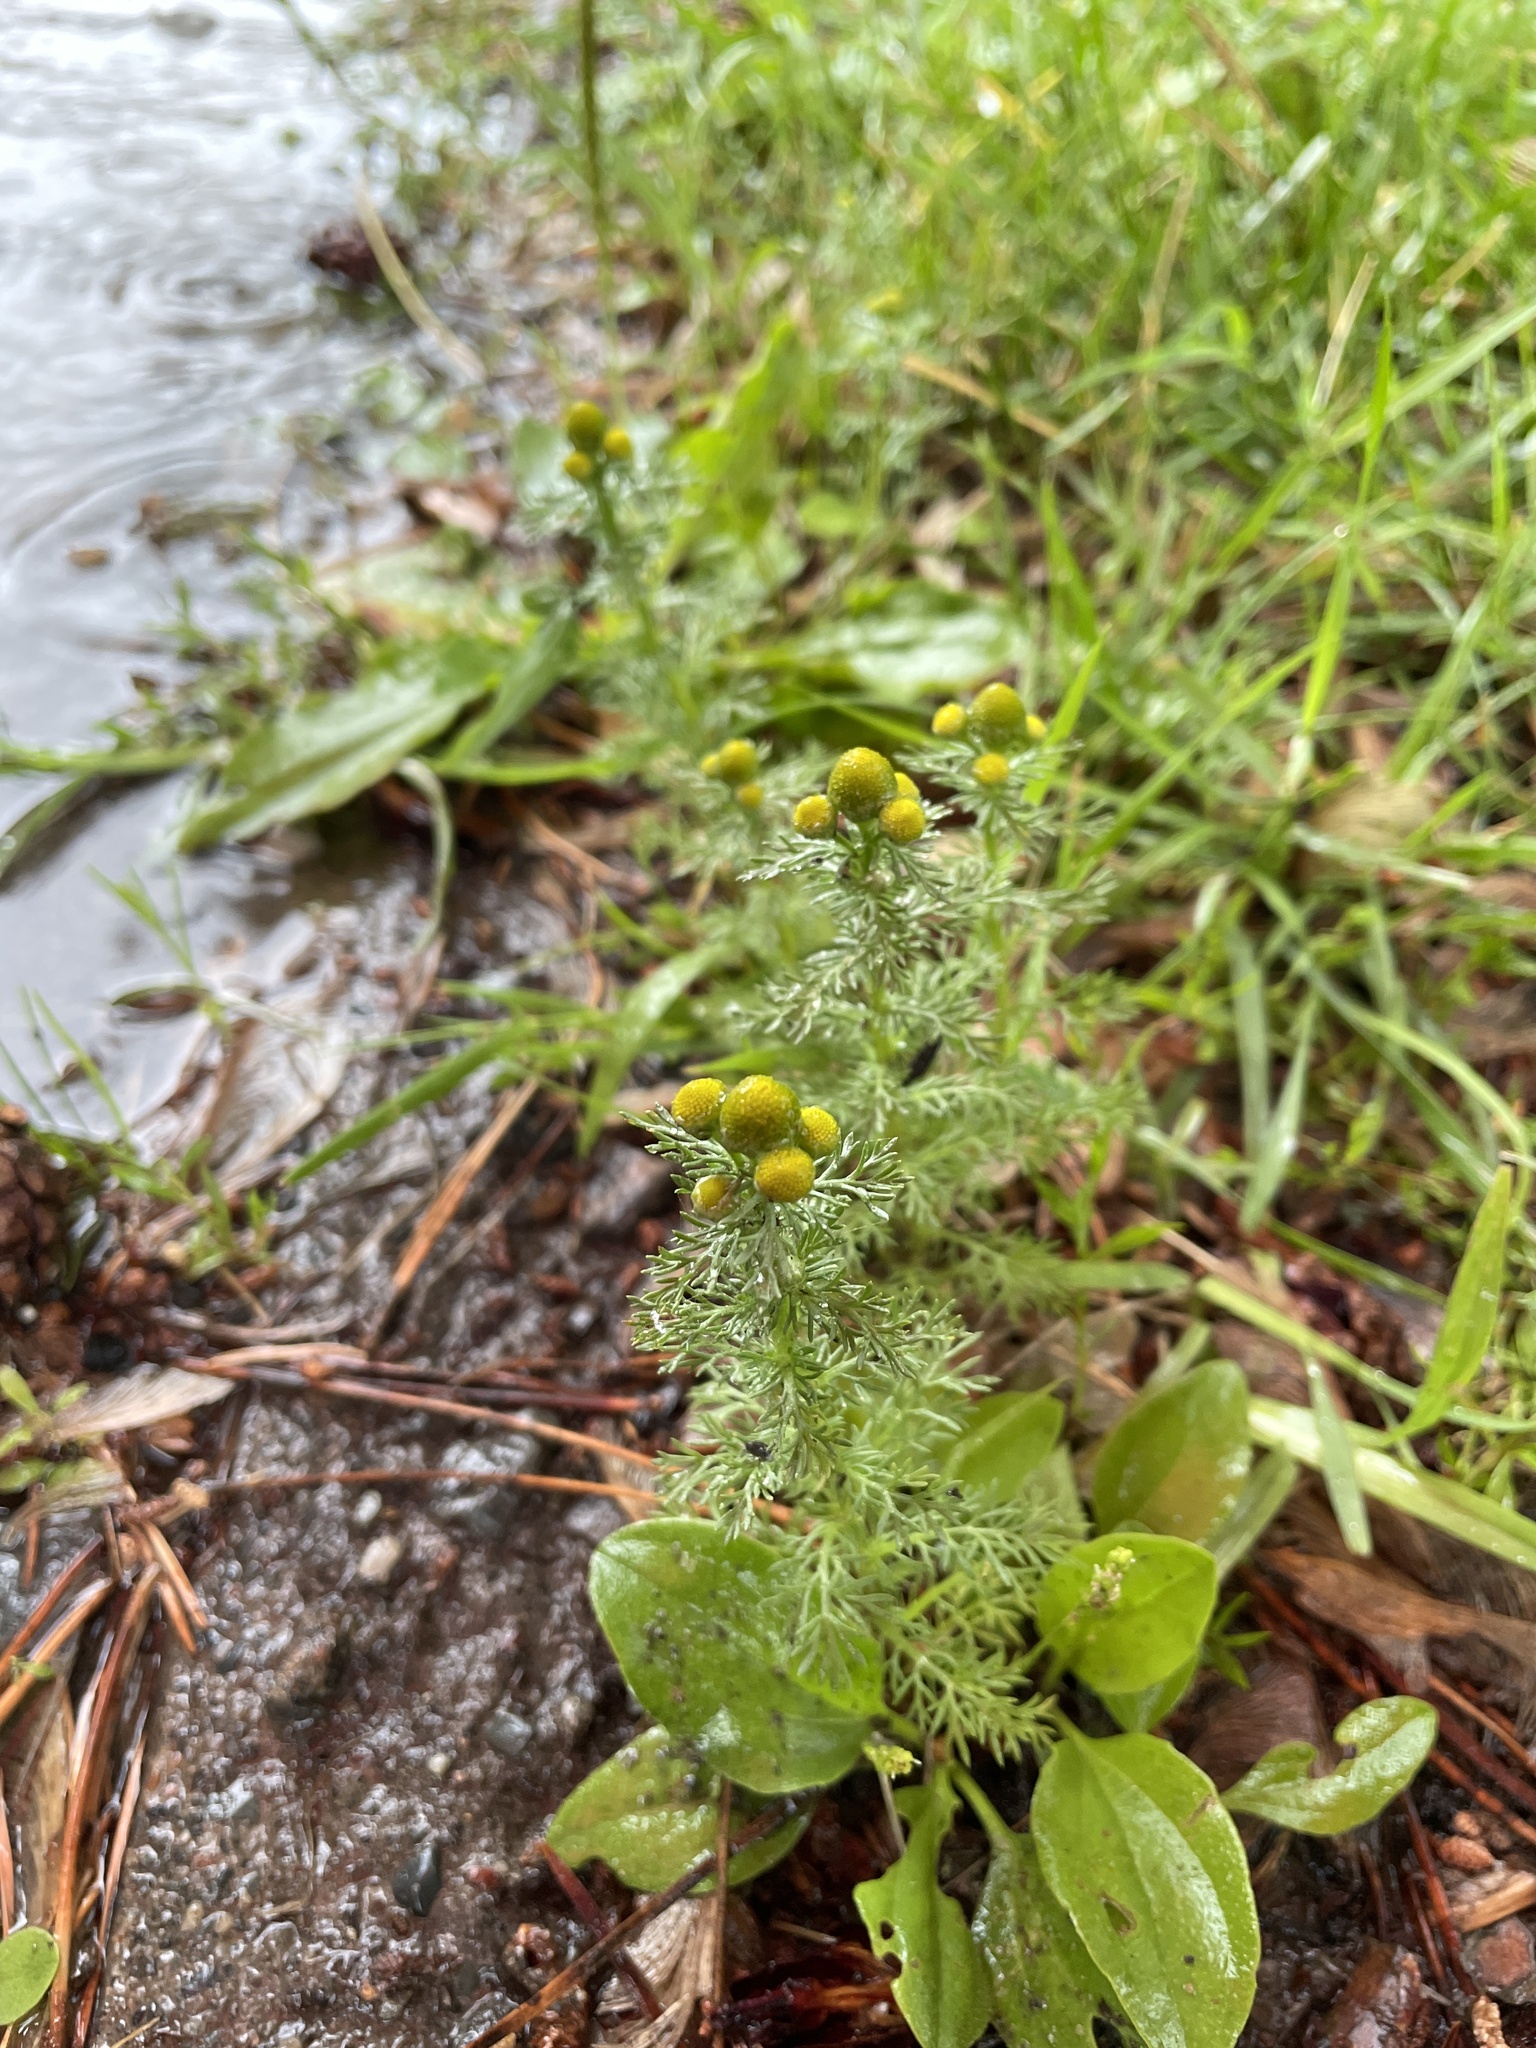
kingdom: Plantae
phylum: Tracheophyta
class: Magnoliopsida
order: Asterales
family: Asteraceae
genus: Matricaria
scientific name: Matricaria discoidea
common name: Disc mayweed
